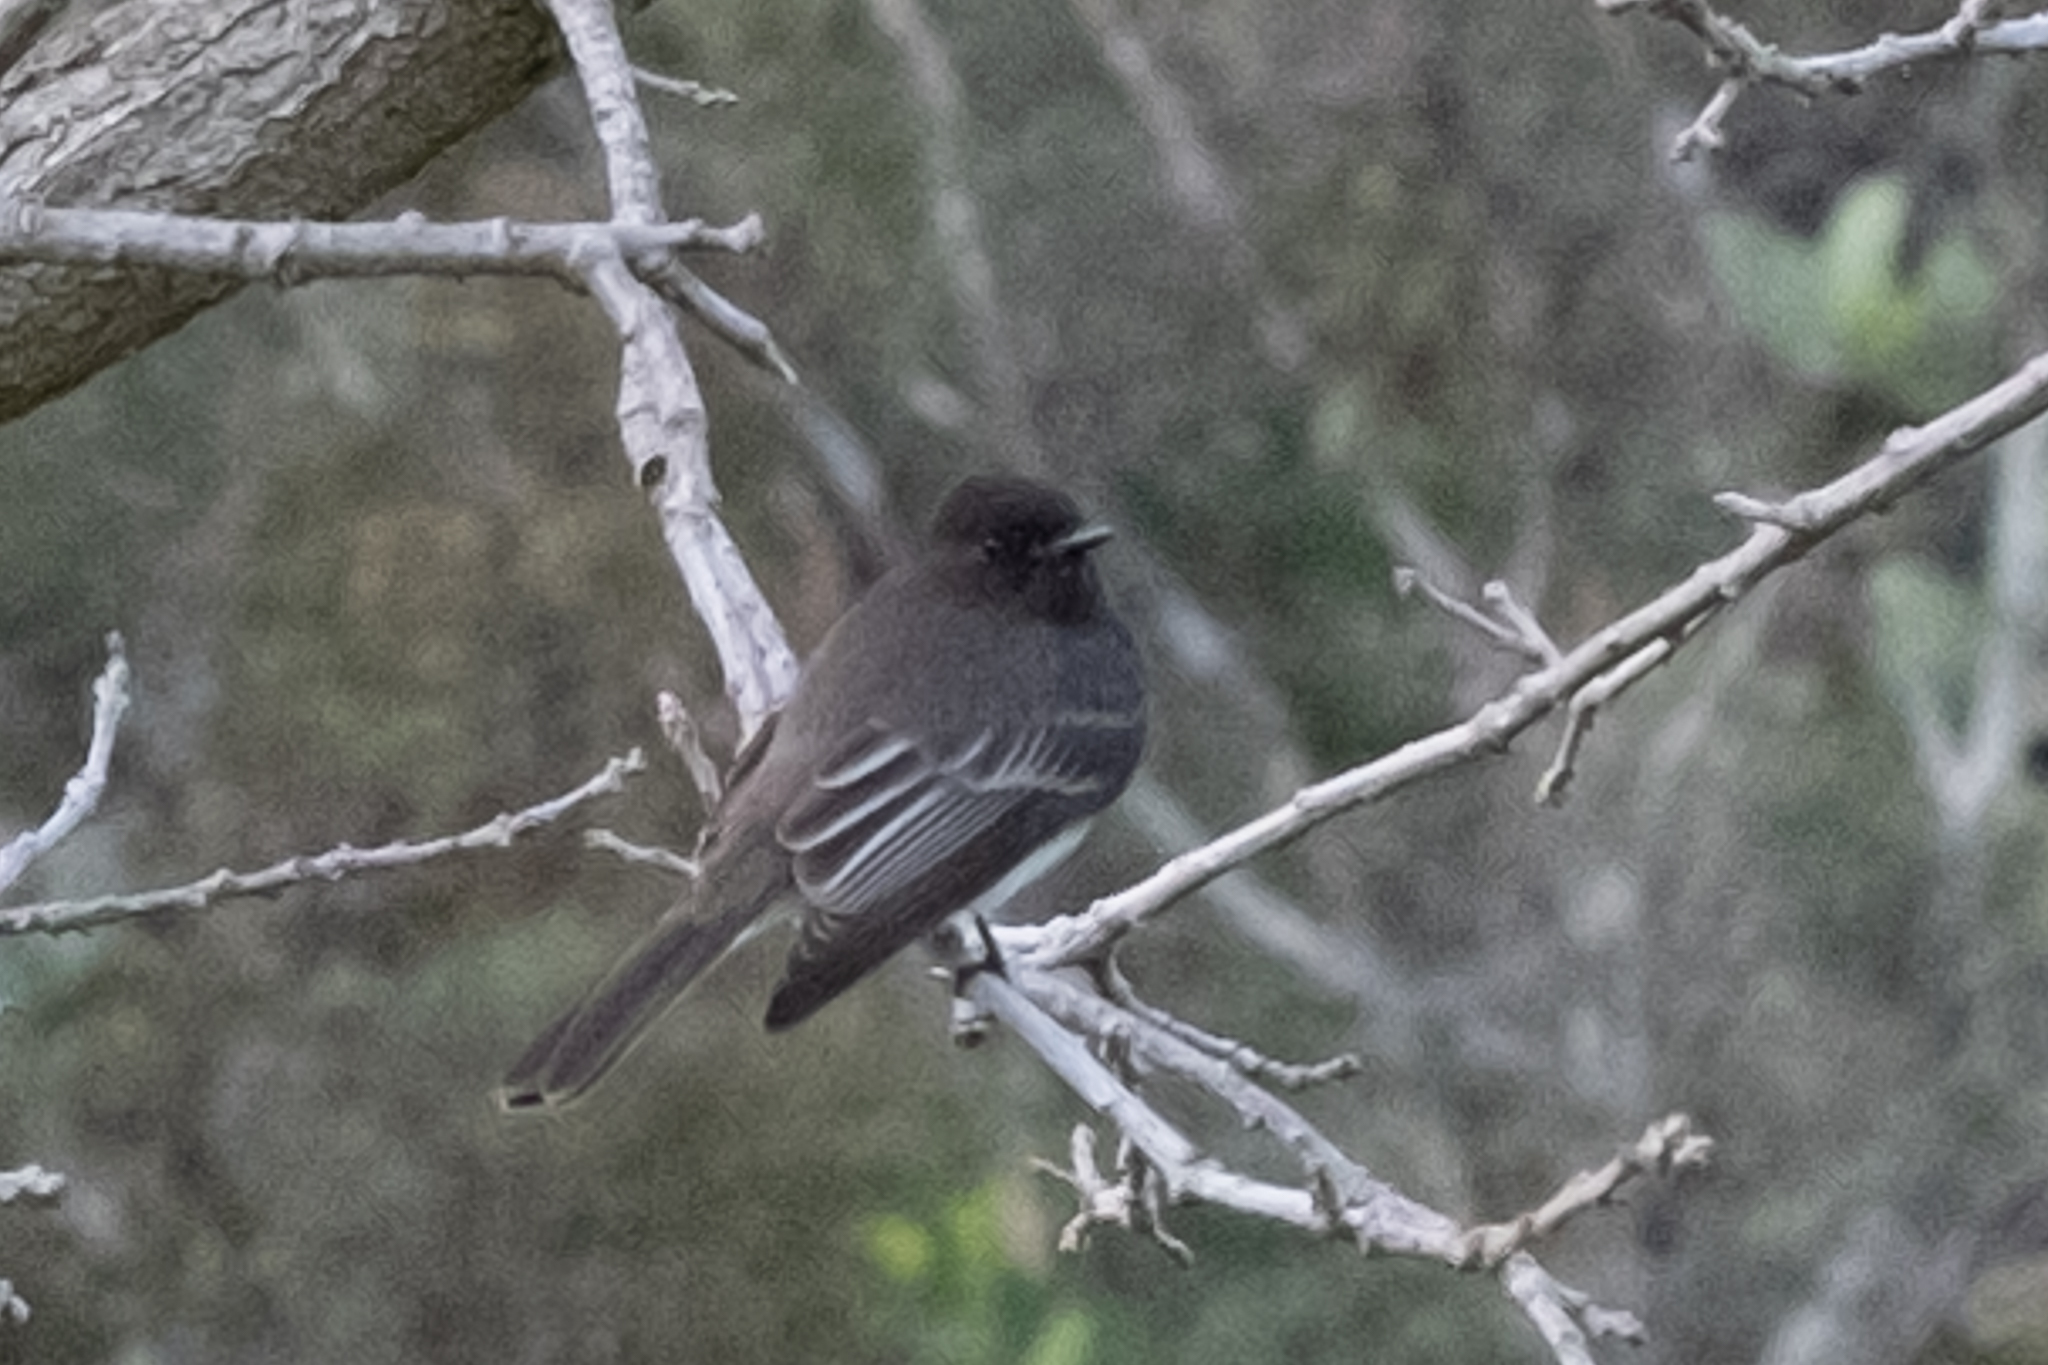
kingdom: Animalia
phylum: Chordata
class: Aves
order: Passeriformes
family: Tyrannidae
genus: Sayornis
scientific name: Sayornis nigricans
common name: Black phoebe
